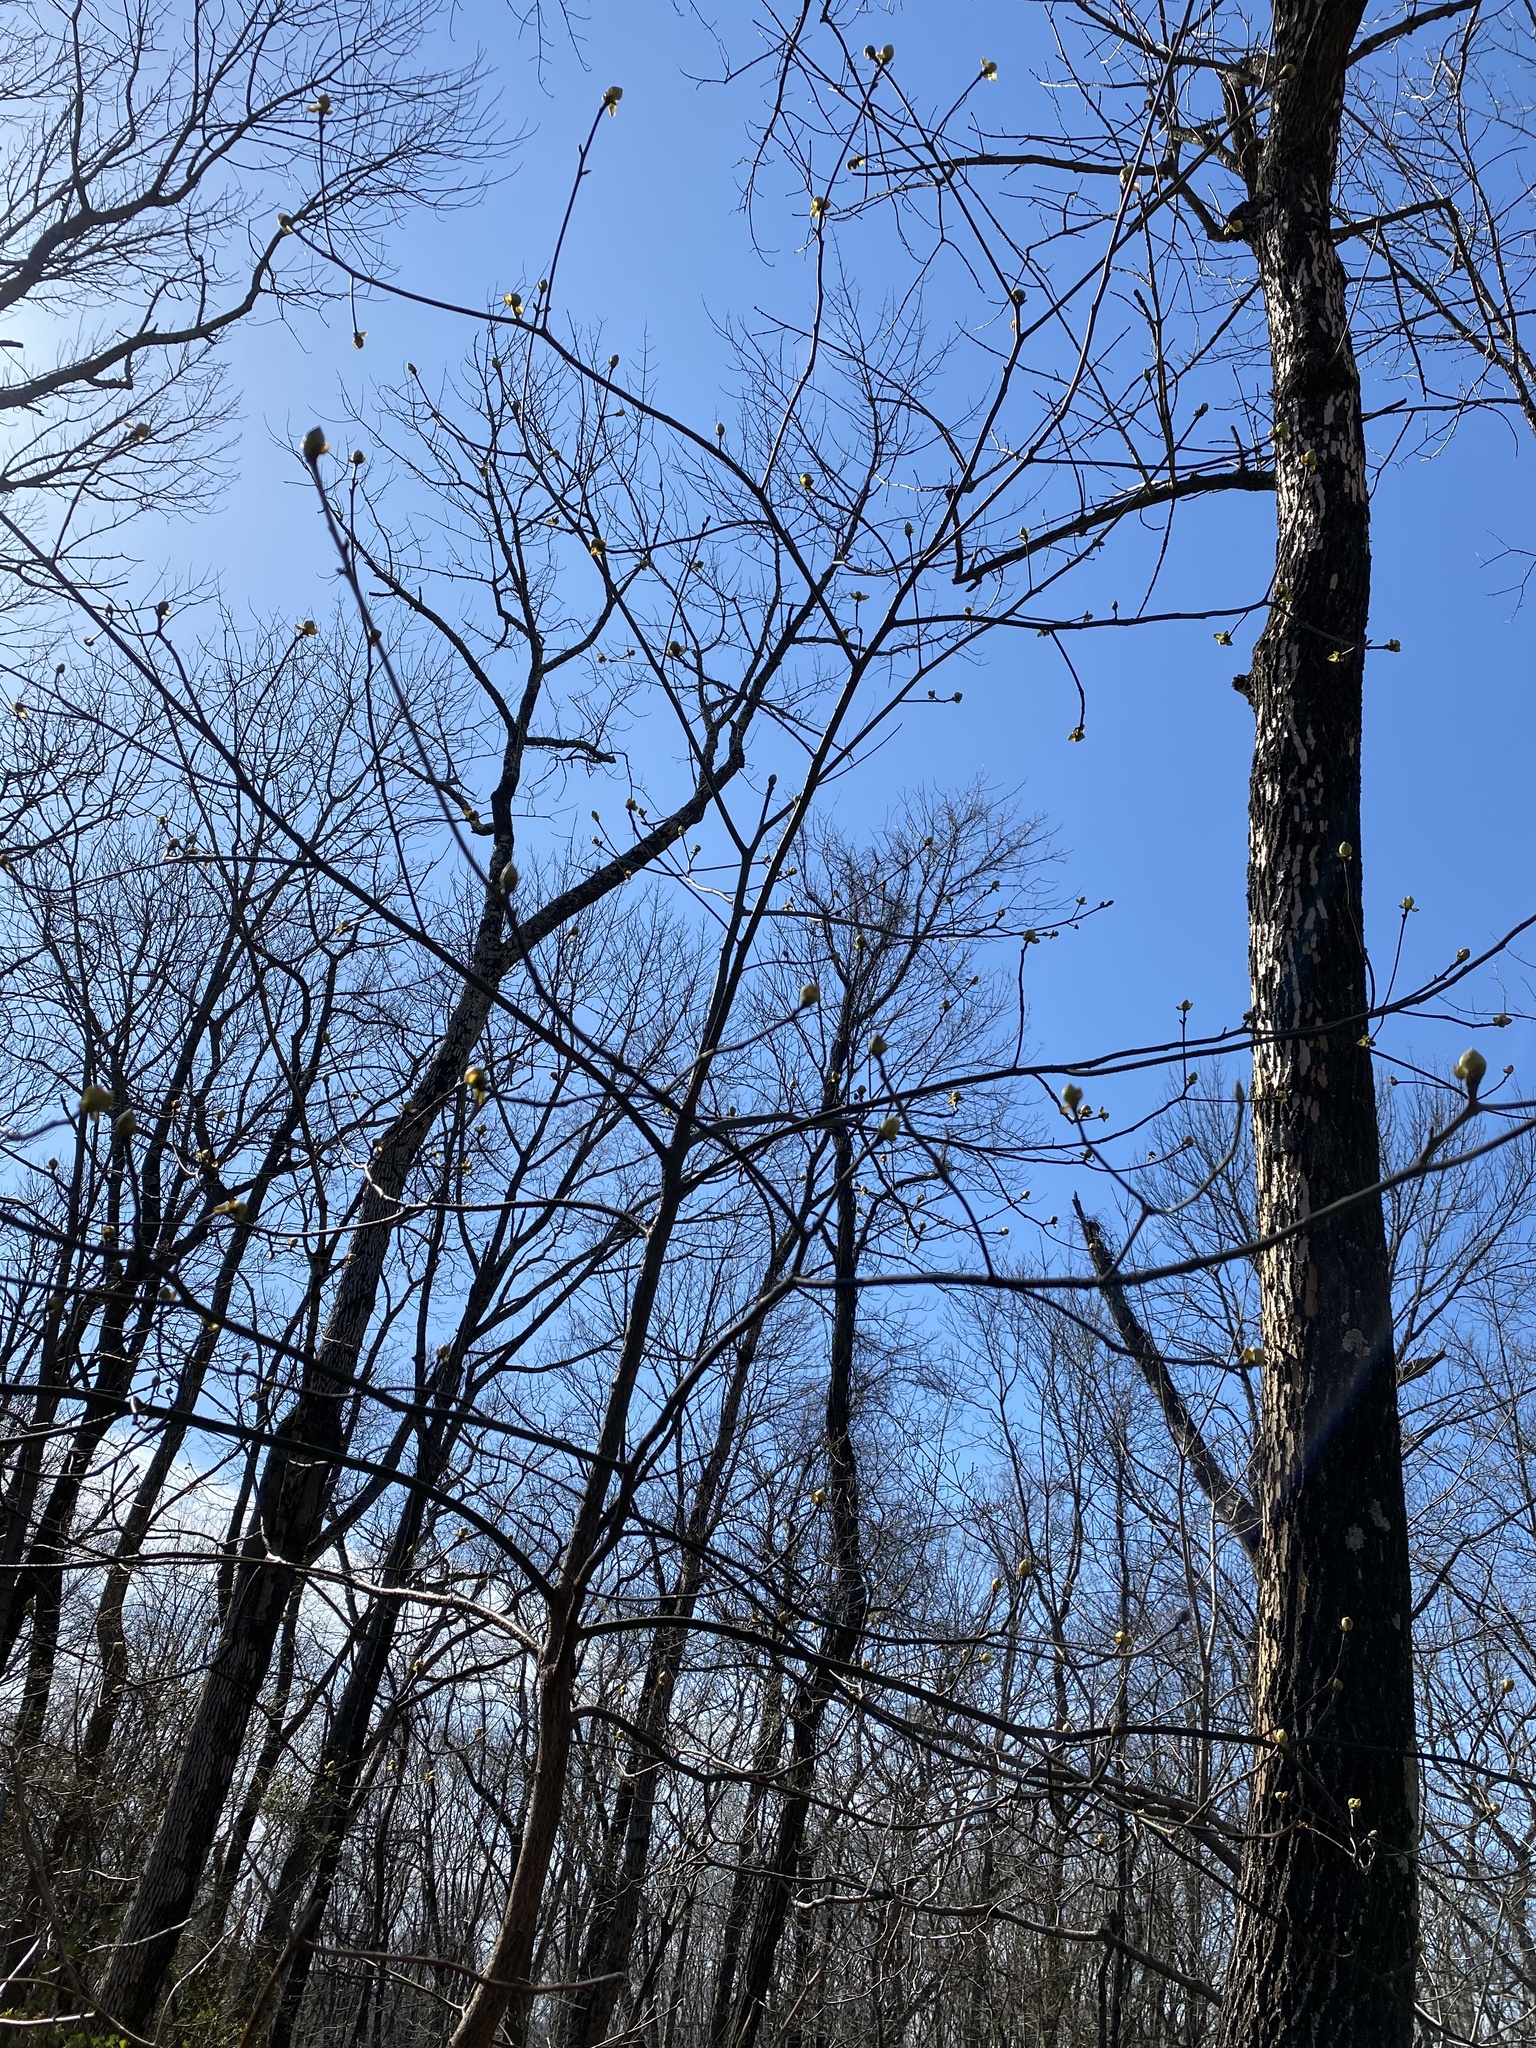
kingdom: Plantae
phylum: Tracheophyta
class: Magnoliopsida
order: Laurales
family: Lauraceae
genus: Sassafras
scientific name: Sassafras albidum
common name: Sassafras
